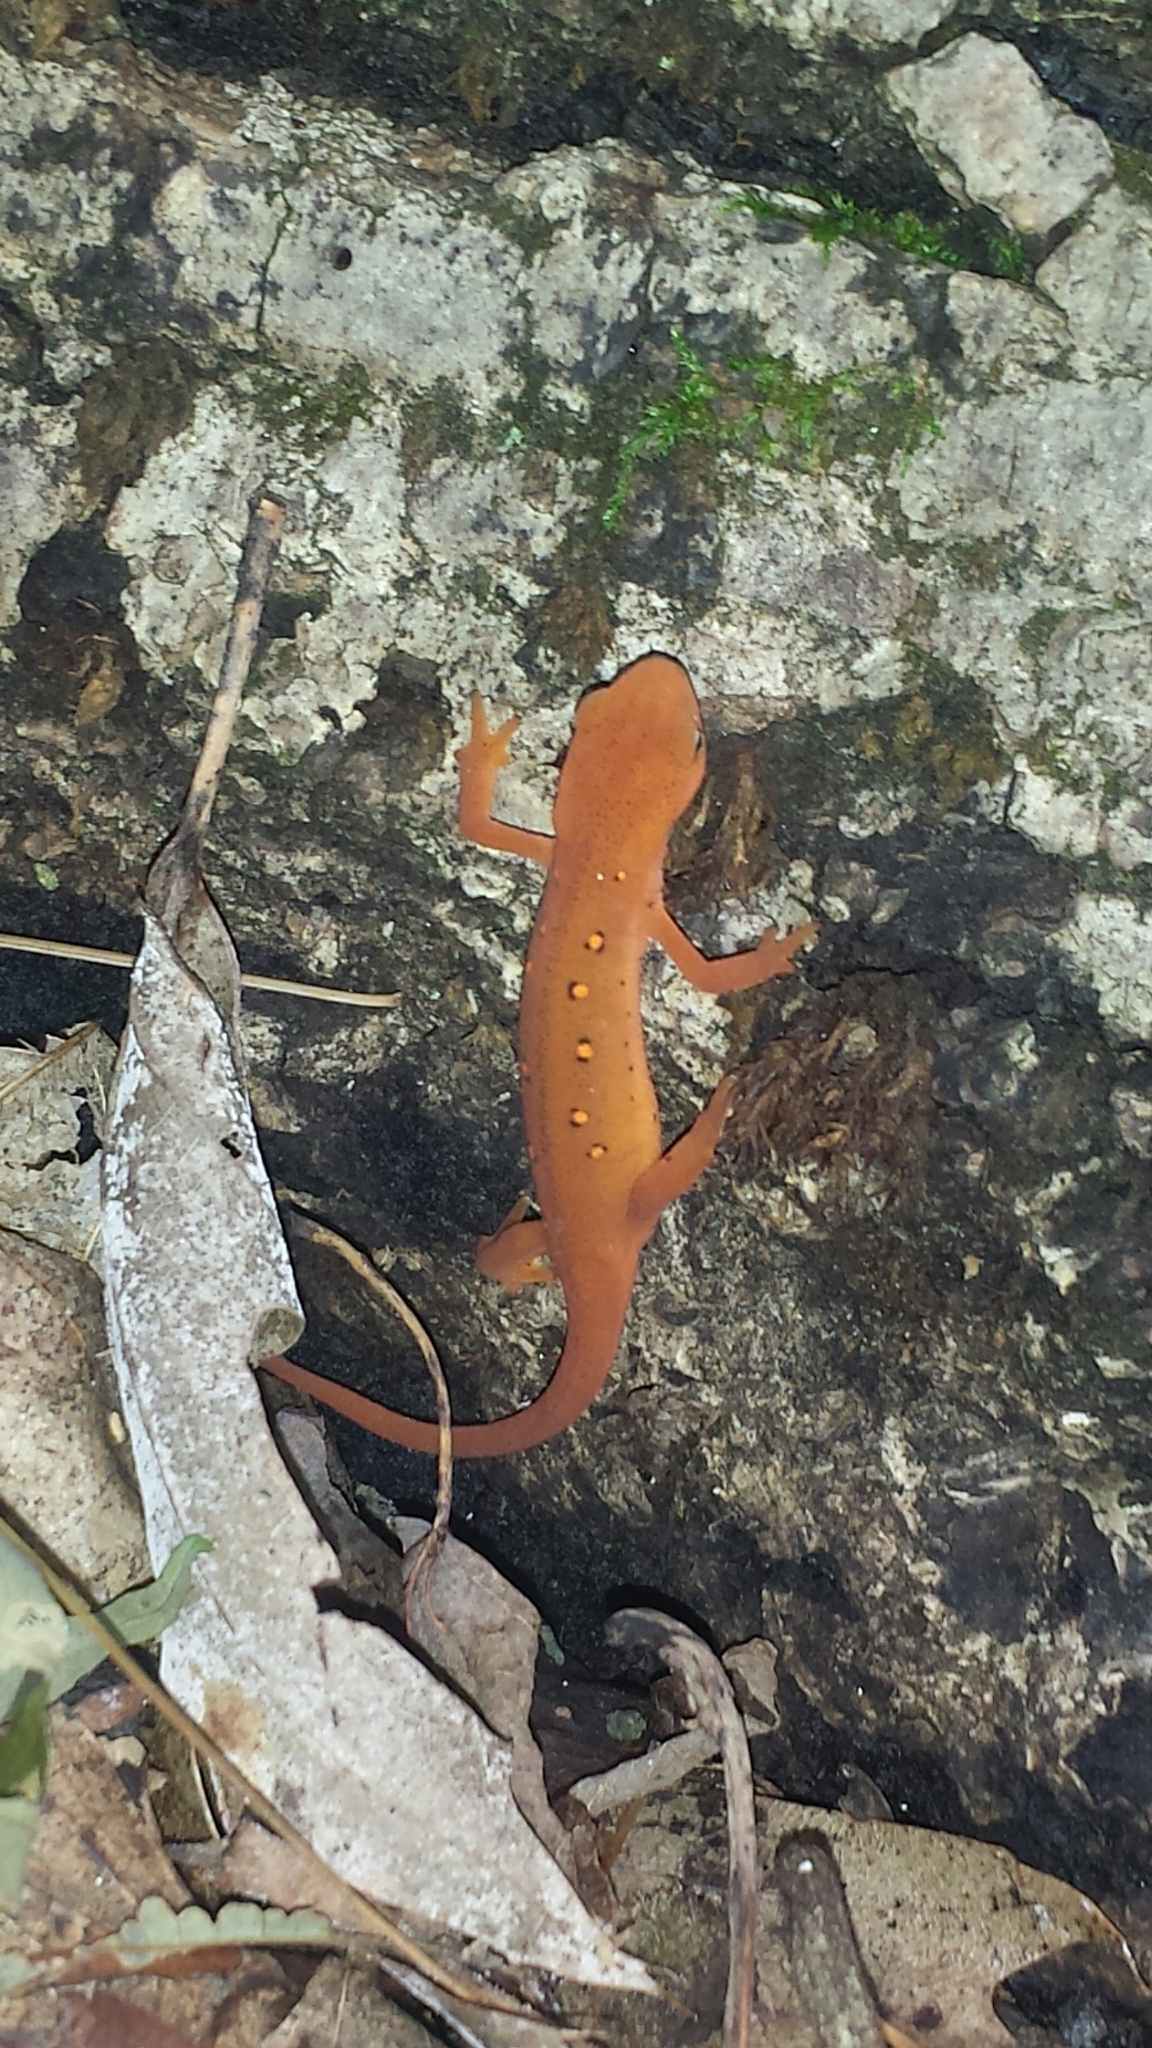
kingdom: Animalia
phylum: Chordata
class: Amphibia
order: Caudata
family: Salamandridae
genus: Notophthalmus
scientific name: Notophthalmus viridescens
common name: Eastern newt
